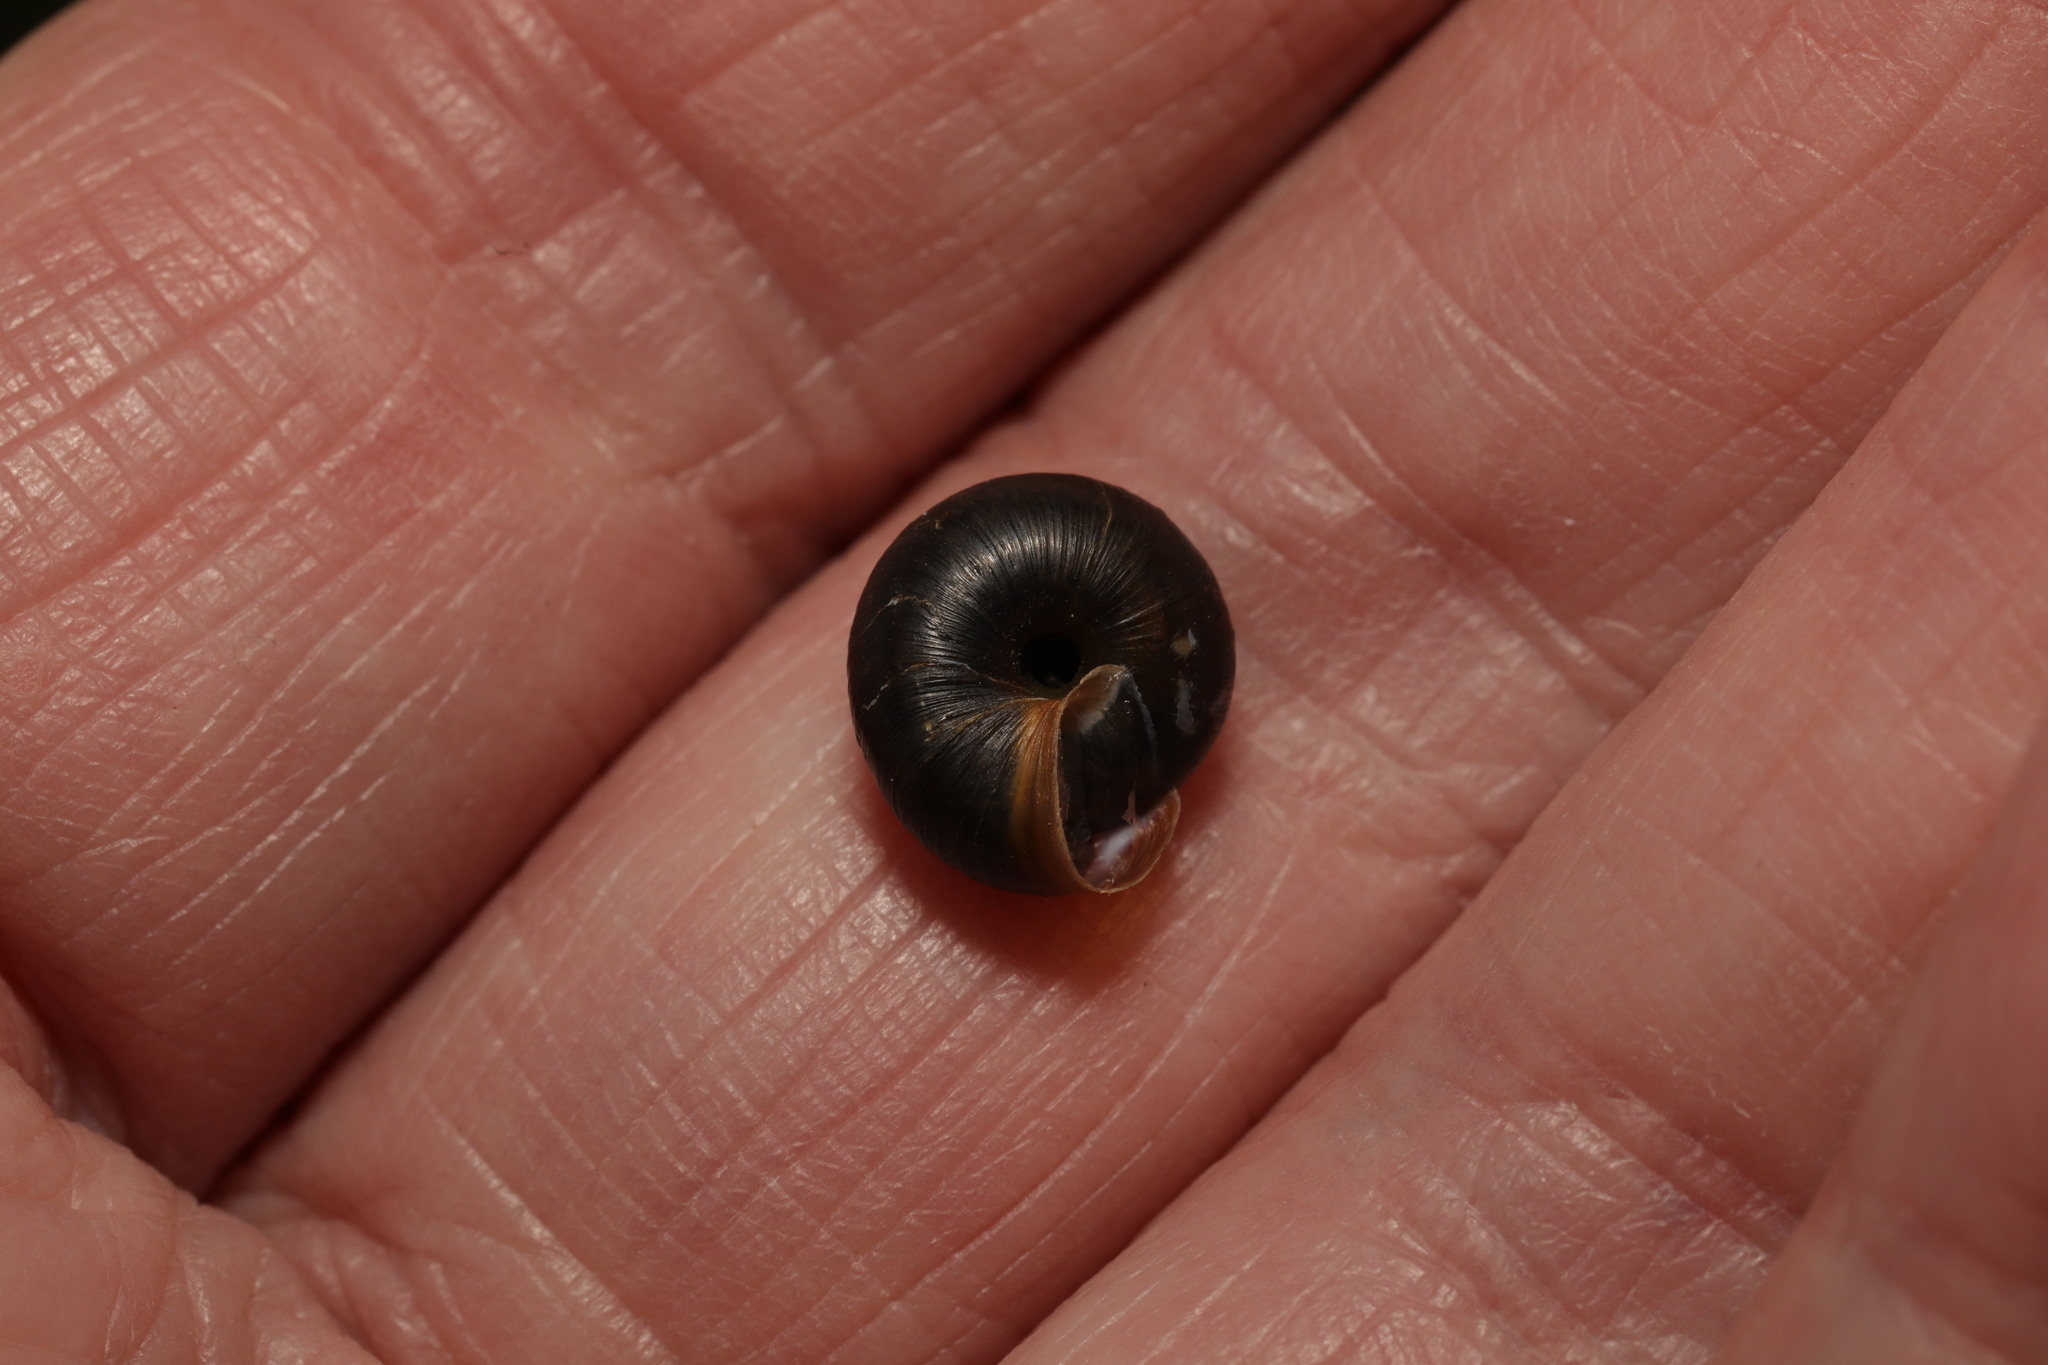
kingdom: Animalia
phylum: Mollusca
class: Gastropoda
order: Stylommatophora
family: Hygromiidae
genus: Trochulus
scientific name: Trochulus striolatus
